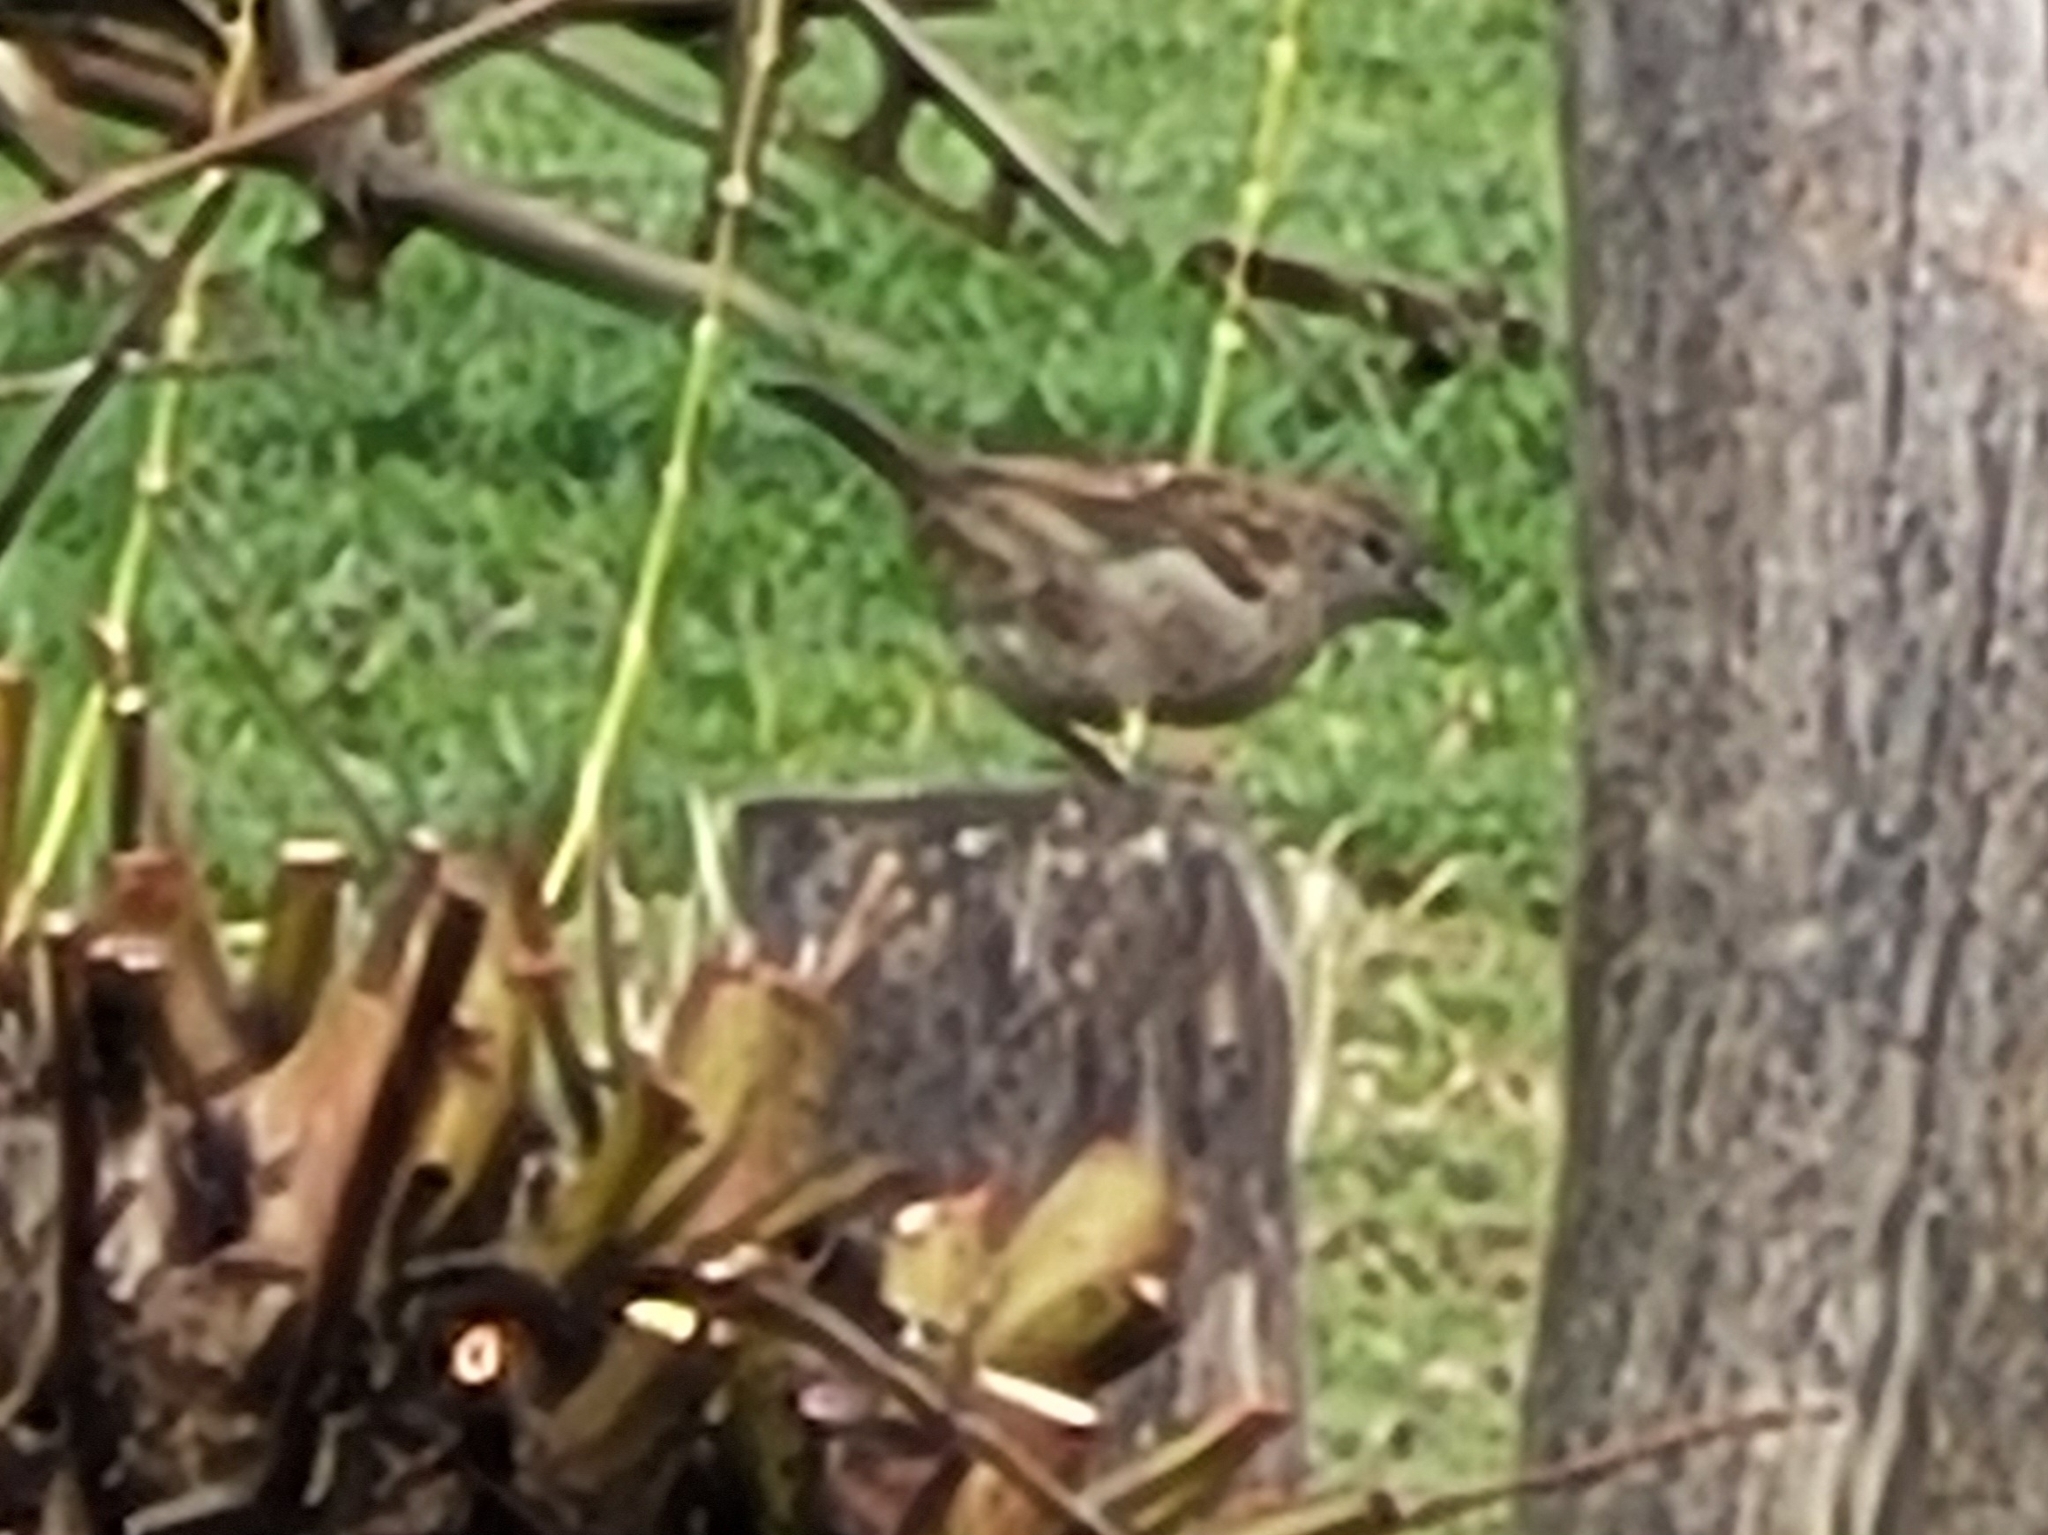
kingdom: Animalia
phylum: Chordata
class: Aves
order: Passeriformes
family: Passeridae
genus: Passer
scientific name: Passer domesticus
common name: House sparrow
